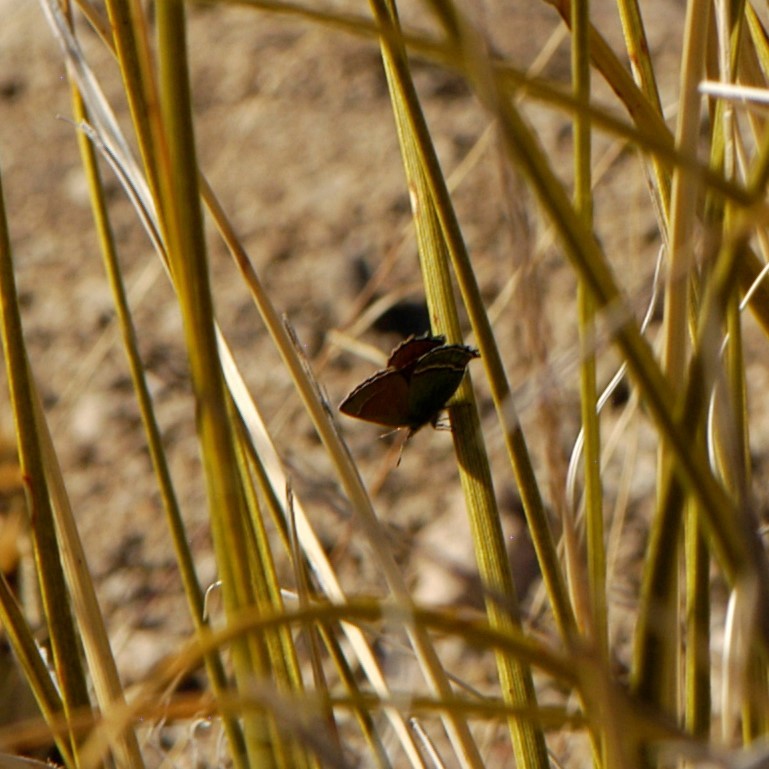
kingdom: Animalia
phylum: Arthropoda
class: Insecta
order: Lepidoptera
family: Lycaenidae
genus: Sandia
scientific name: Sandia mcfarlandi
